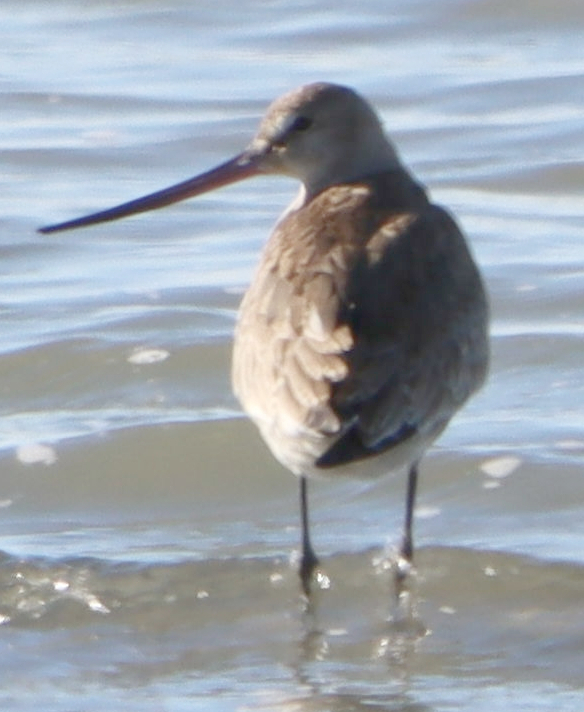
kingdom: Animalia
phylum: Chordata
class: Aves
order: Charadriiformes
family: Scolopacidae
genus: Limosa
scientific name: Limosa haemastica
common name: Hudsonian godwit
